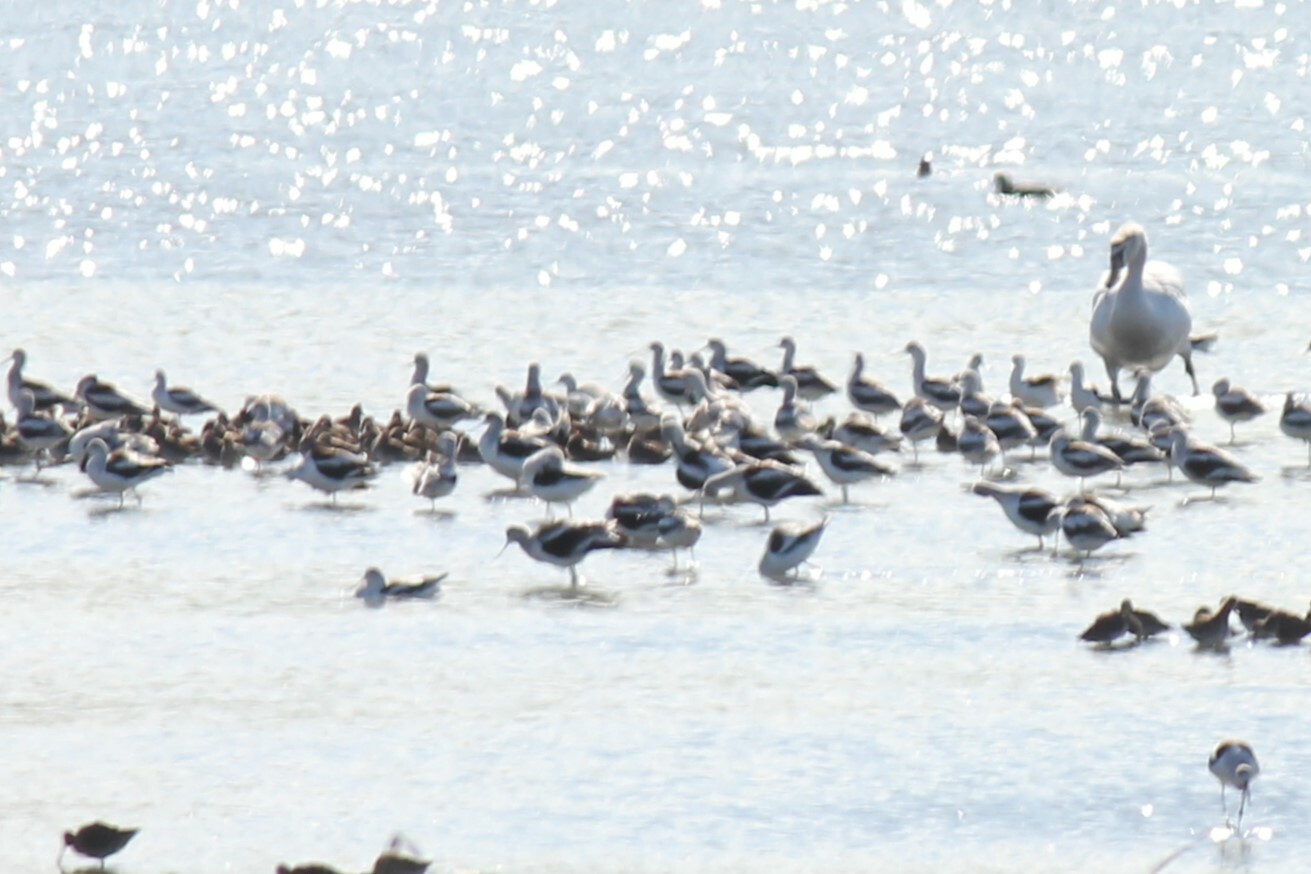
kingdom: Animalia
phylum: Chordata
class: Aves
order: Charadriiformes
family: Recurvirostridae
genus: Recurvirostra
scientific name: Recurvirostra americana
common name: American avocet
